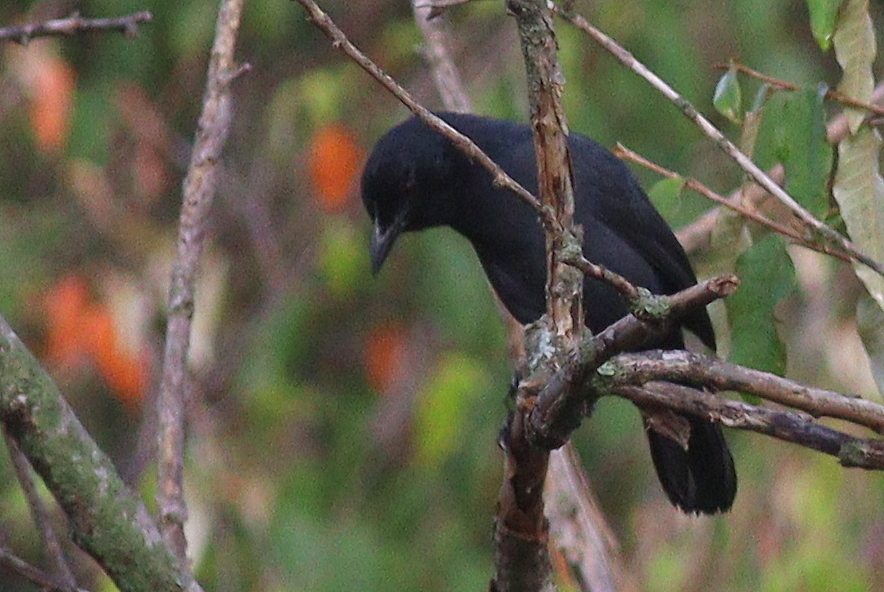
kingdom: Animalia
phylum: Chordata
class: Aves
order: Passeriformes
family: Malaconotidae
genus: Laniarius
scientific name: Laniarius funebris
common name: Slate-colored boubou
